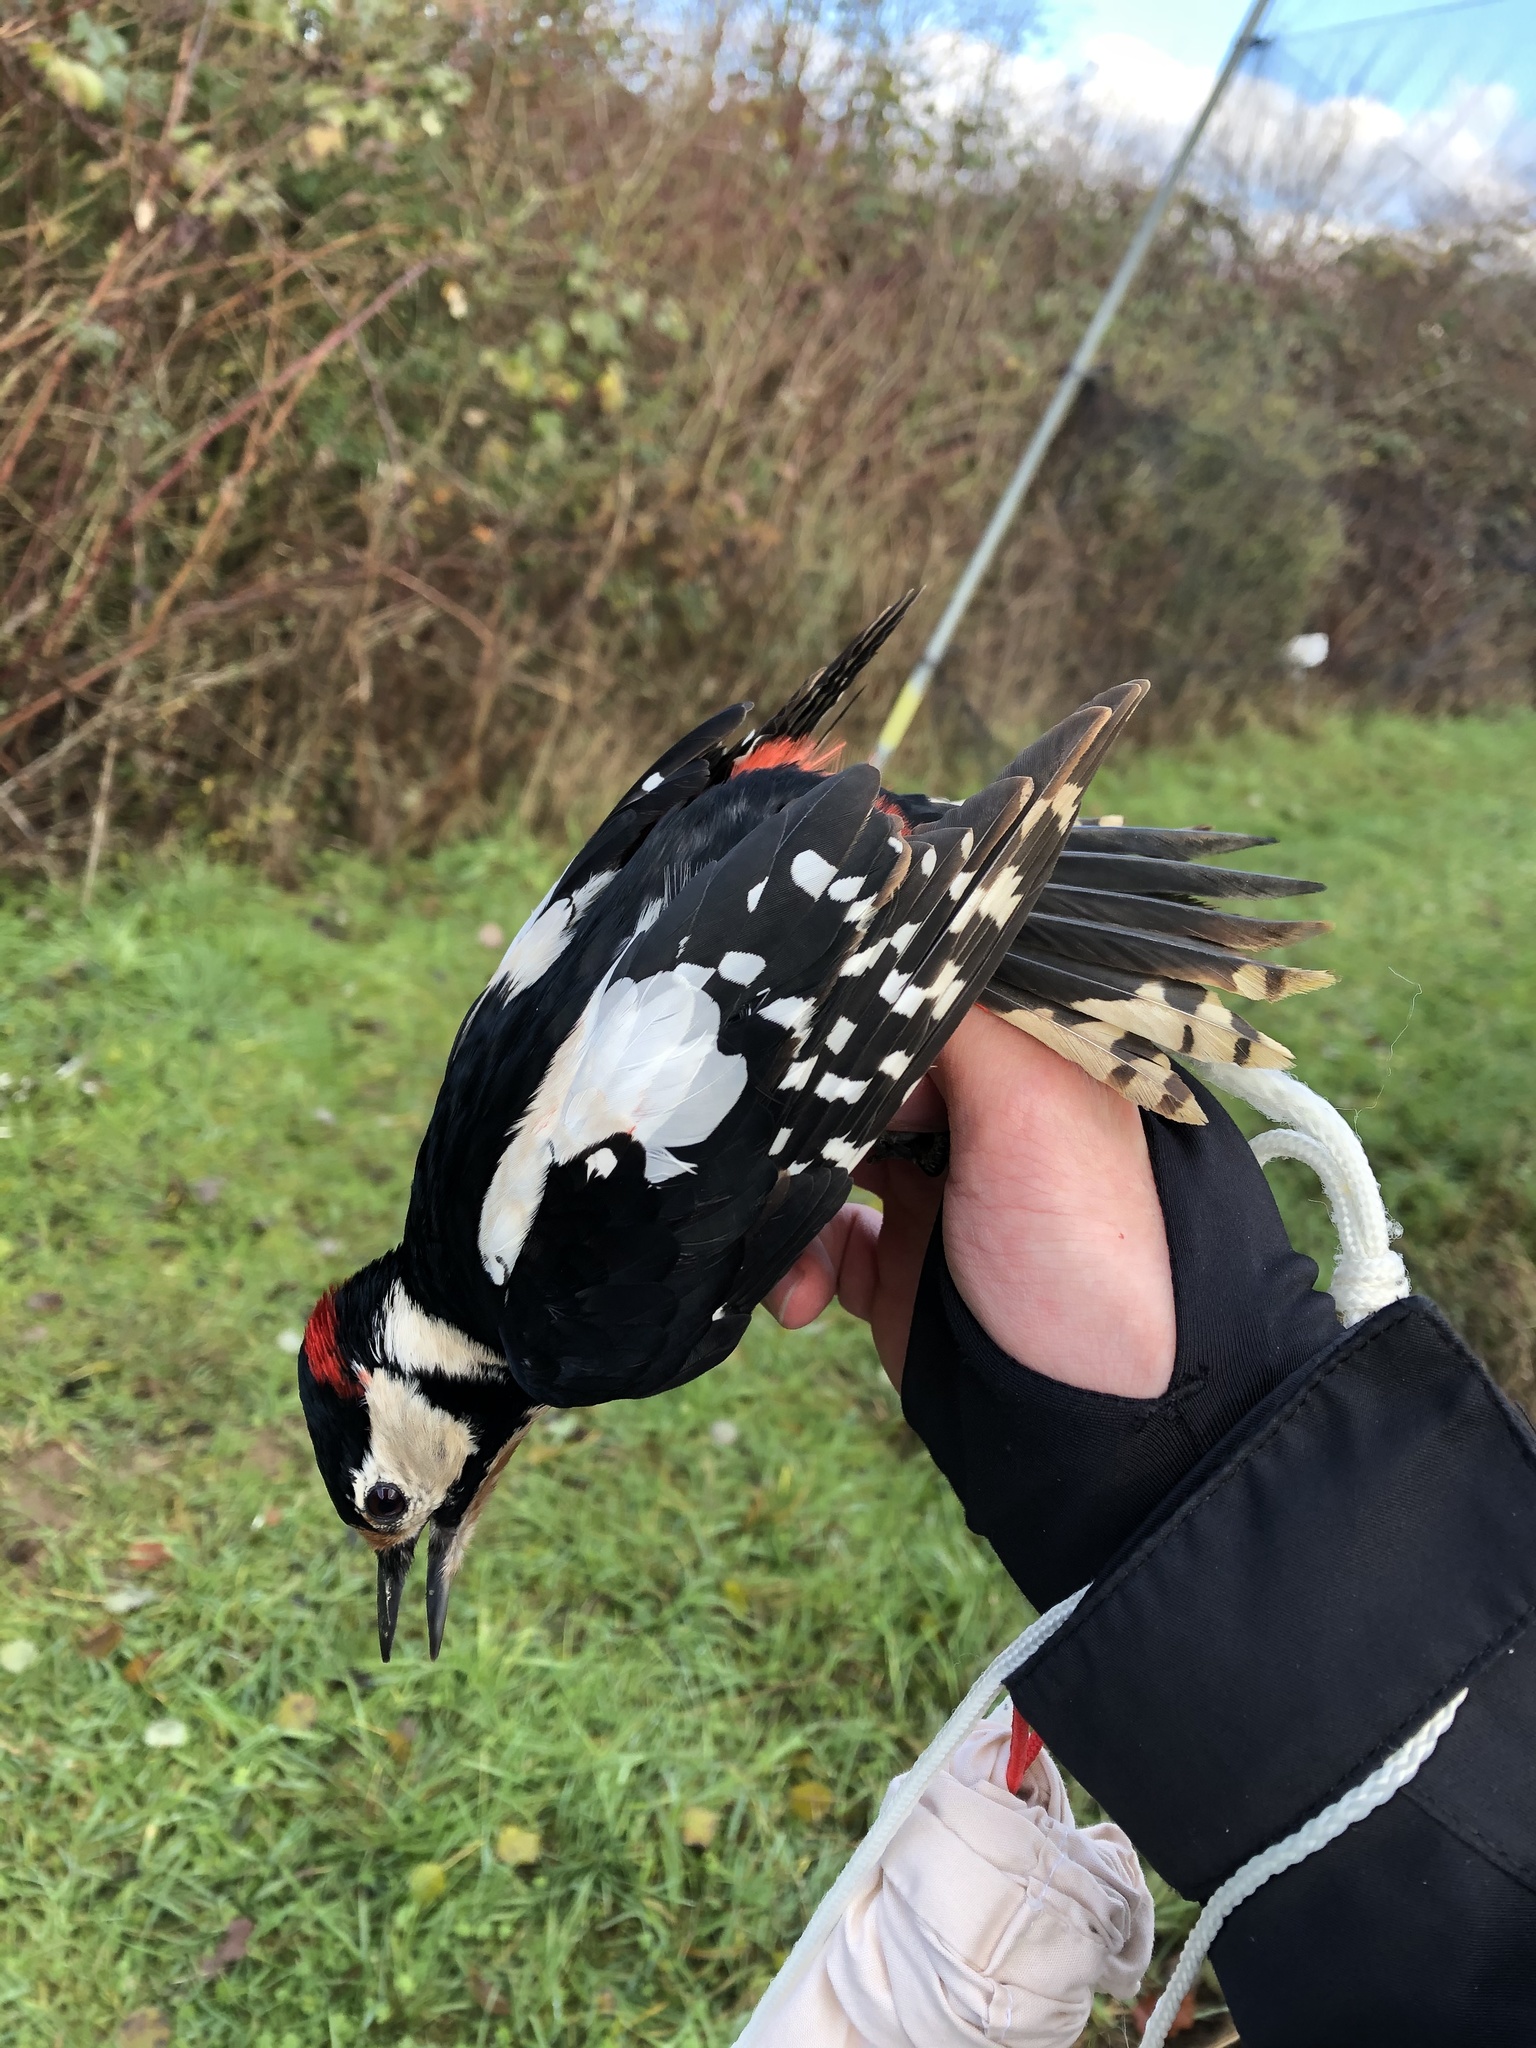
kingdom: Animalia
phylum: Chordata
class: Aves
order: Piciformes
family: Picidae
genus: Dendrocopos
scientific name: Dendrocopos major
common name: Great spotted woodpecker
